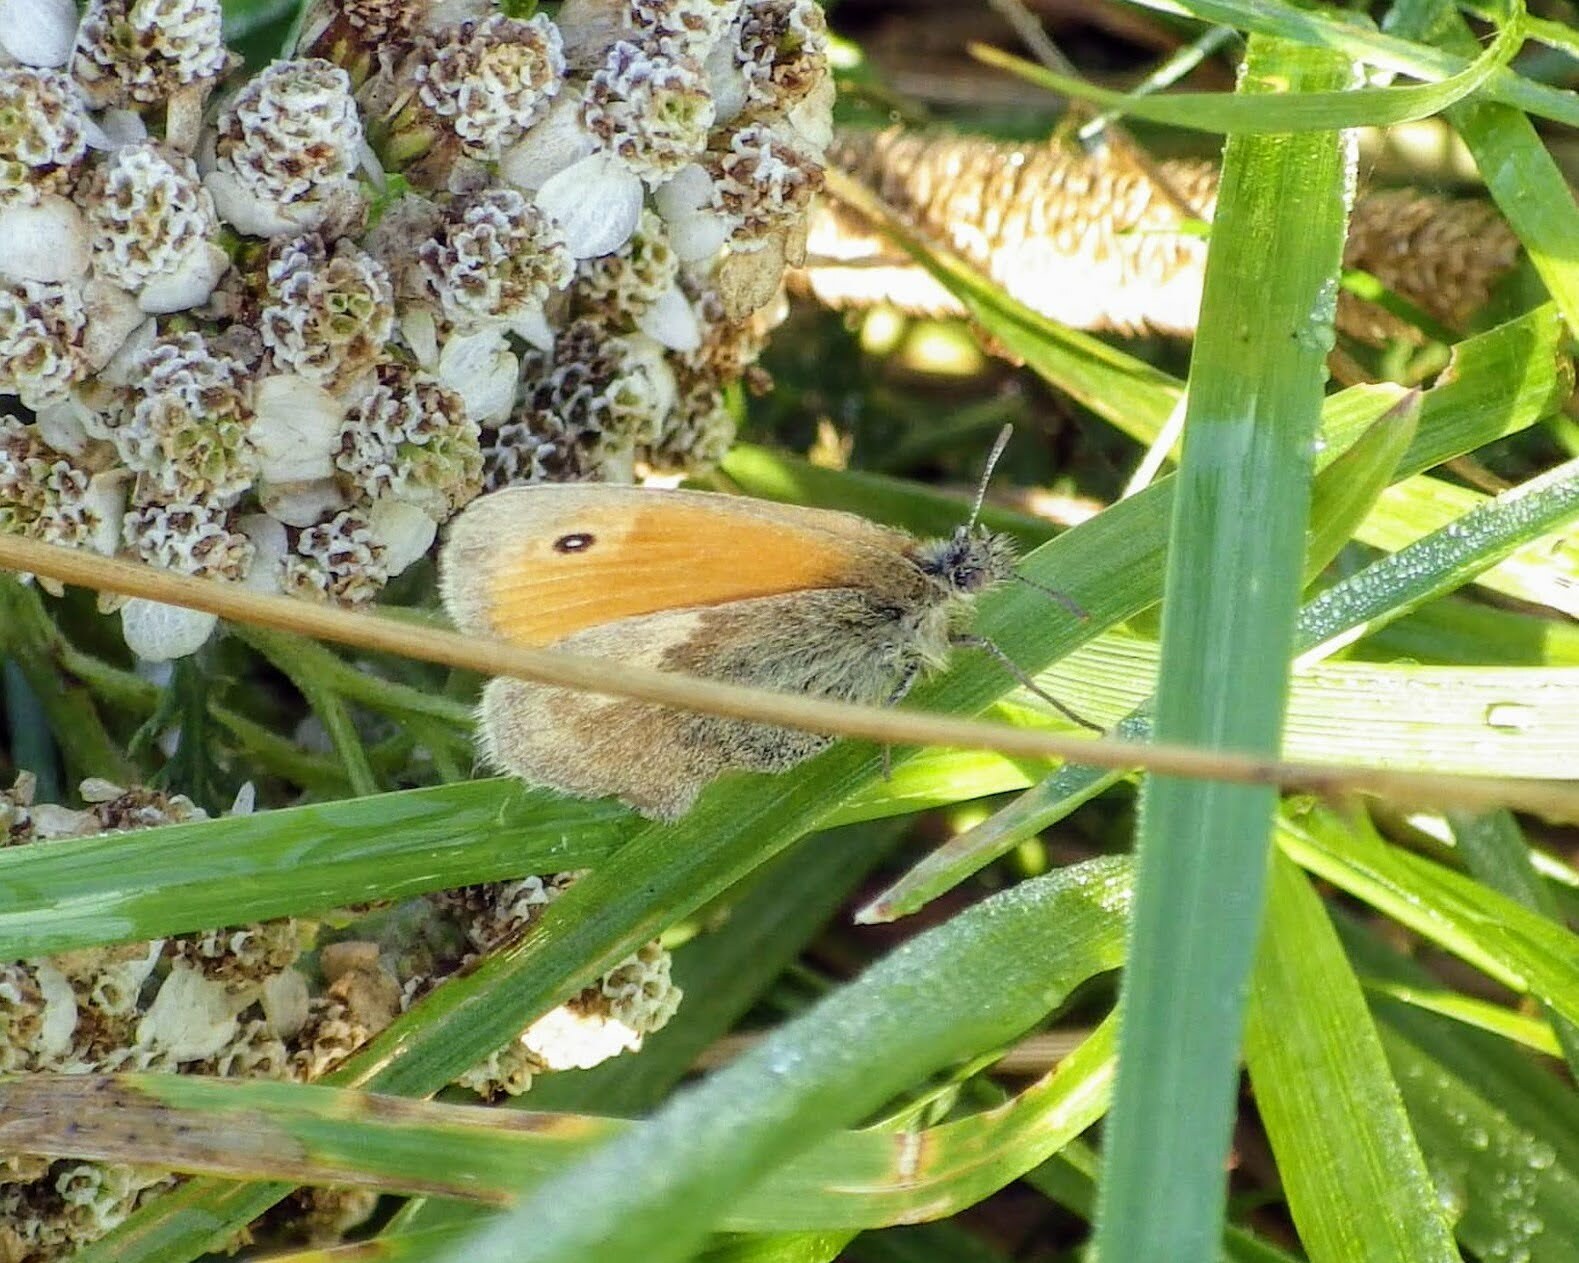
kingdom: Animalia
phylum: Arthropoda
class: Insecta
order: Lepidoptera
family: Nymphalidae
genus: Coenonympha
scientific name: Coenonympha pamphilus
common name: Small heath
